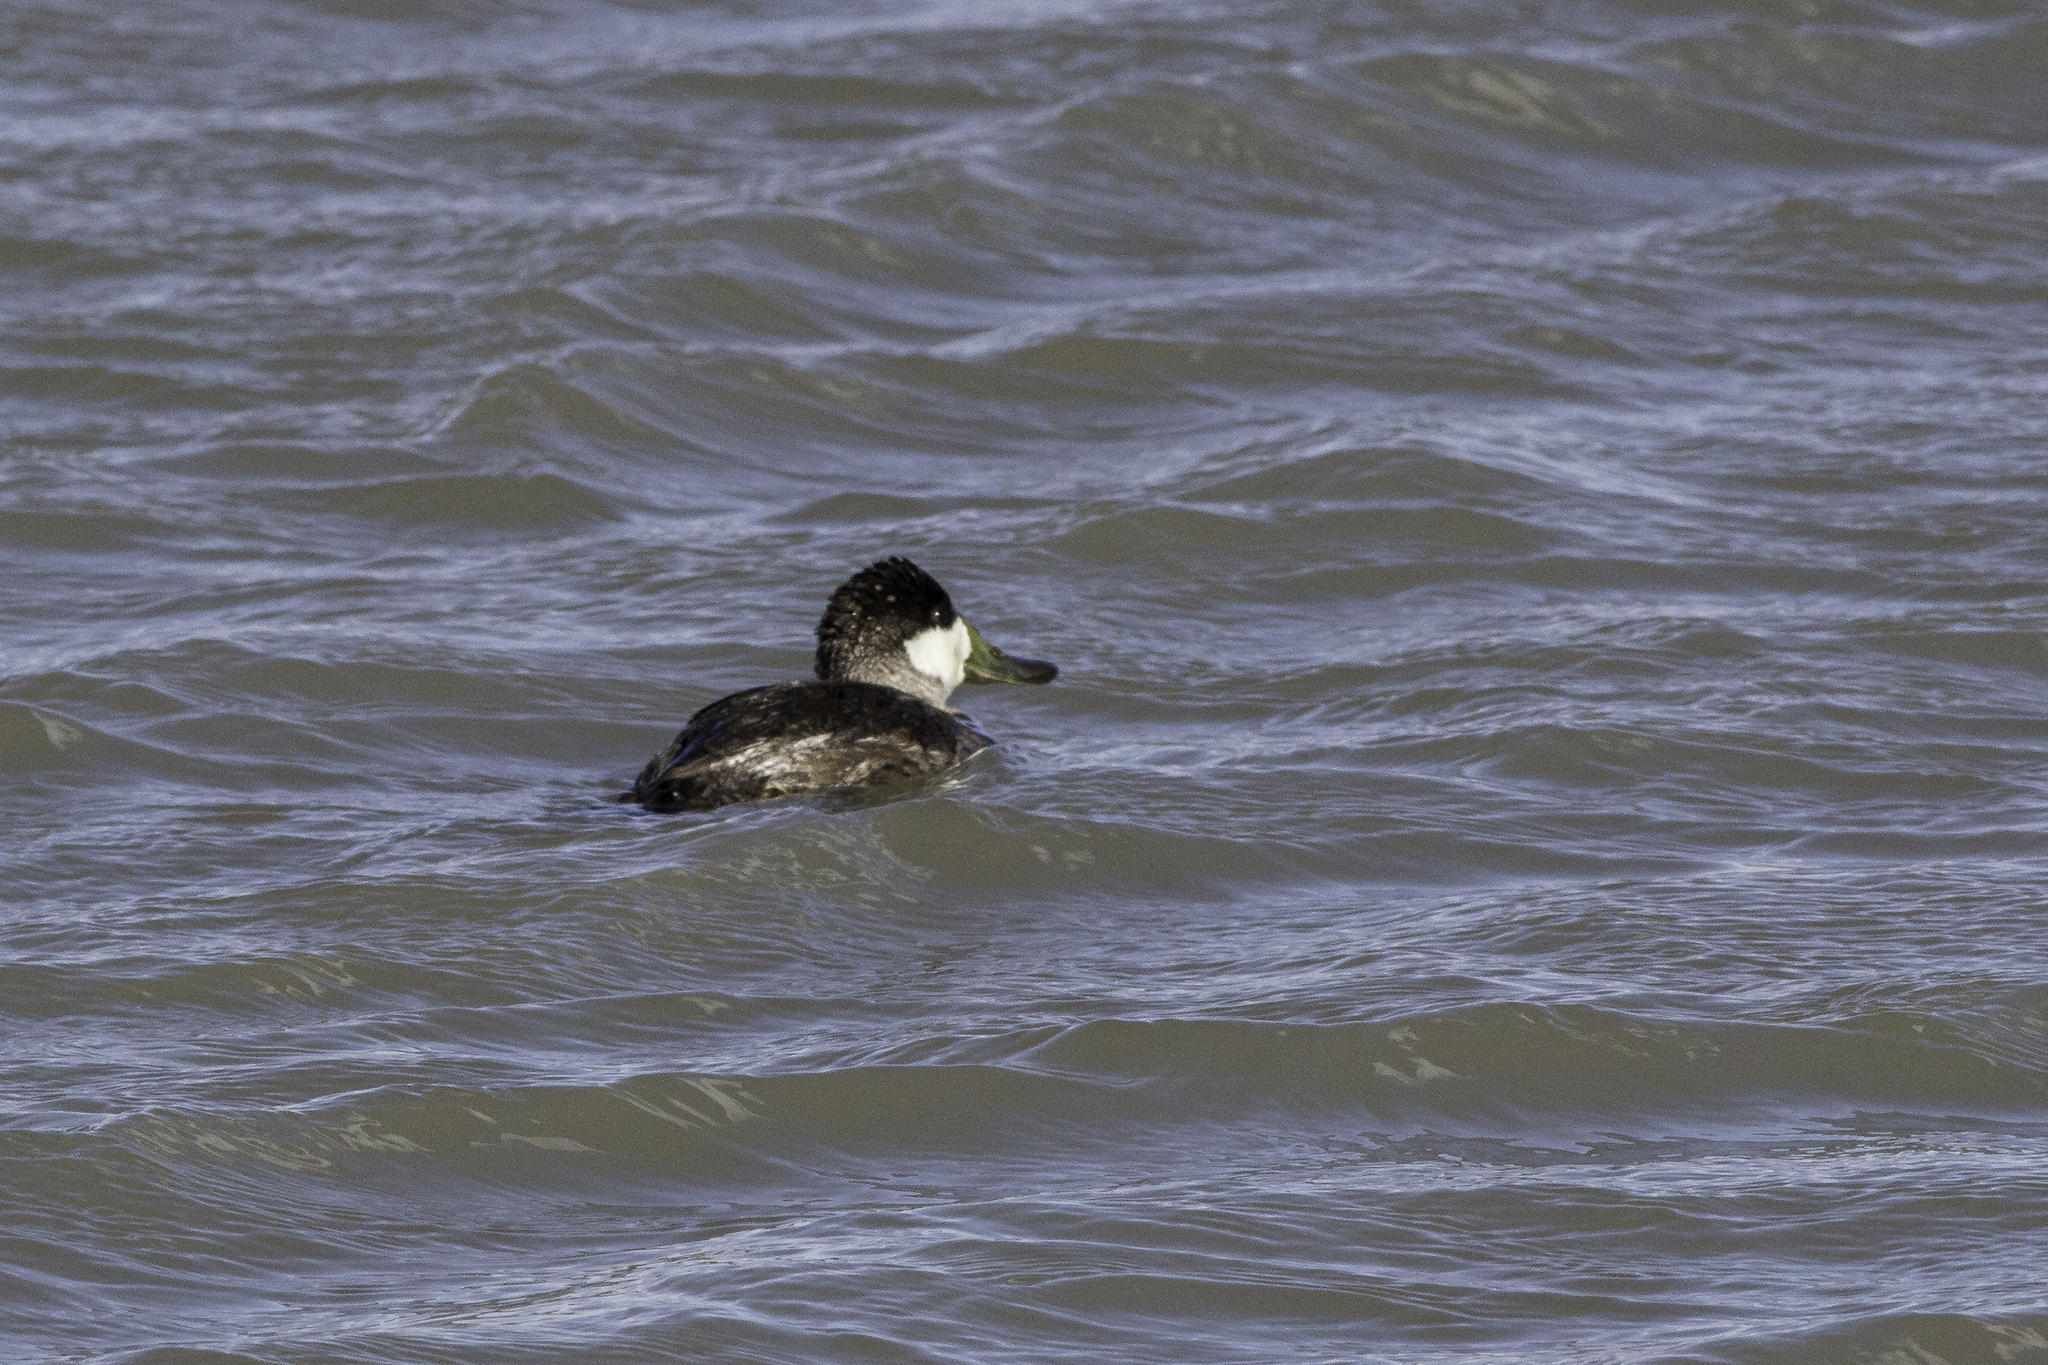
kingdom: Animalia
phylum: Chordata
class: Aves
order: Anseriformes
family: Anatidae
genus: Oxyura
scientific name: Oxyura jamaicensis
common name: Ruddy duck
